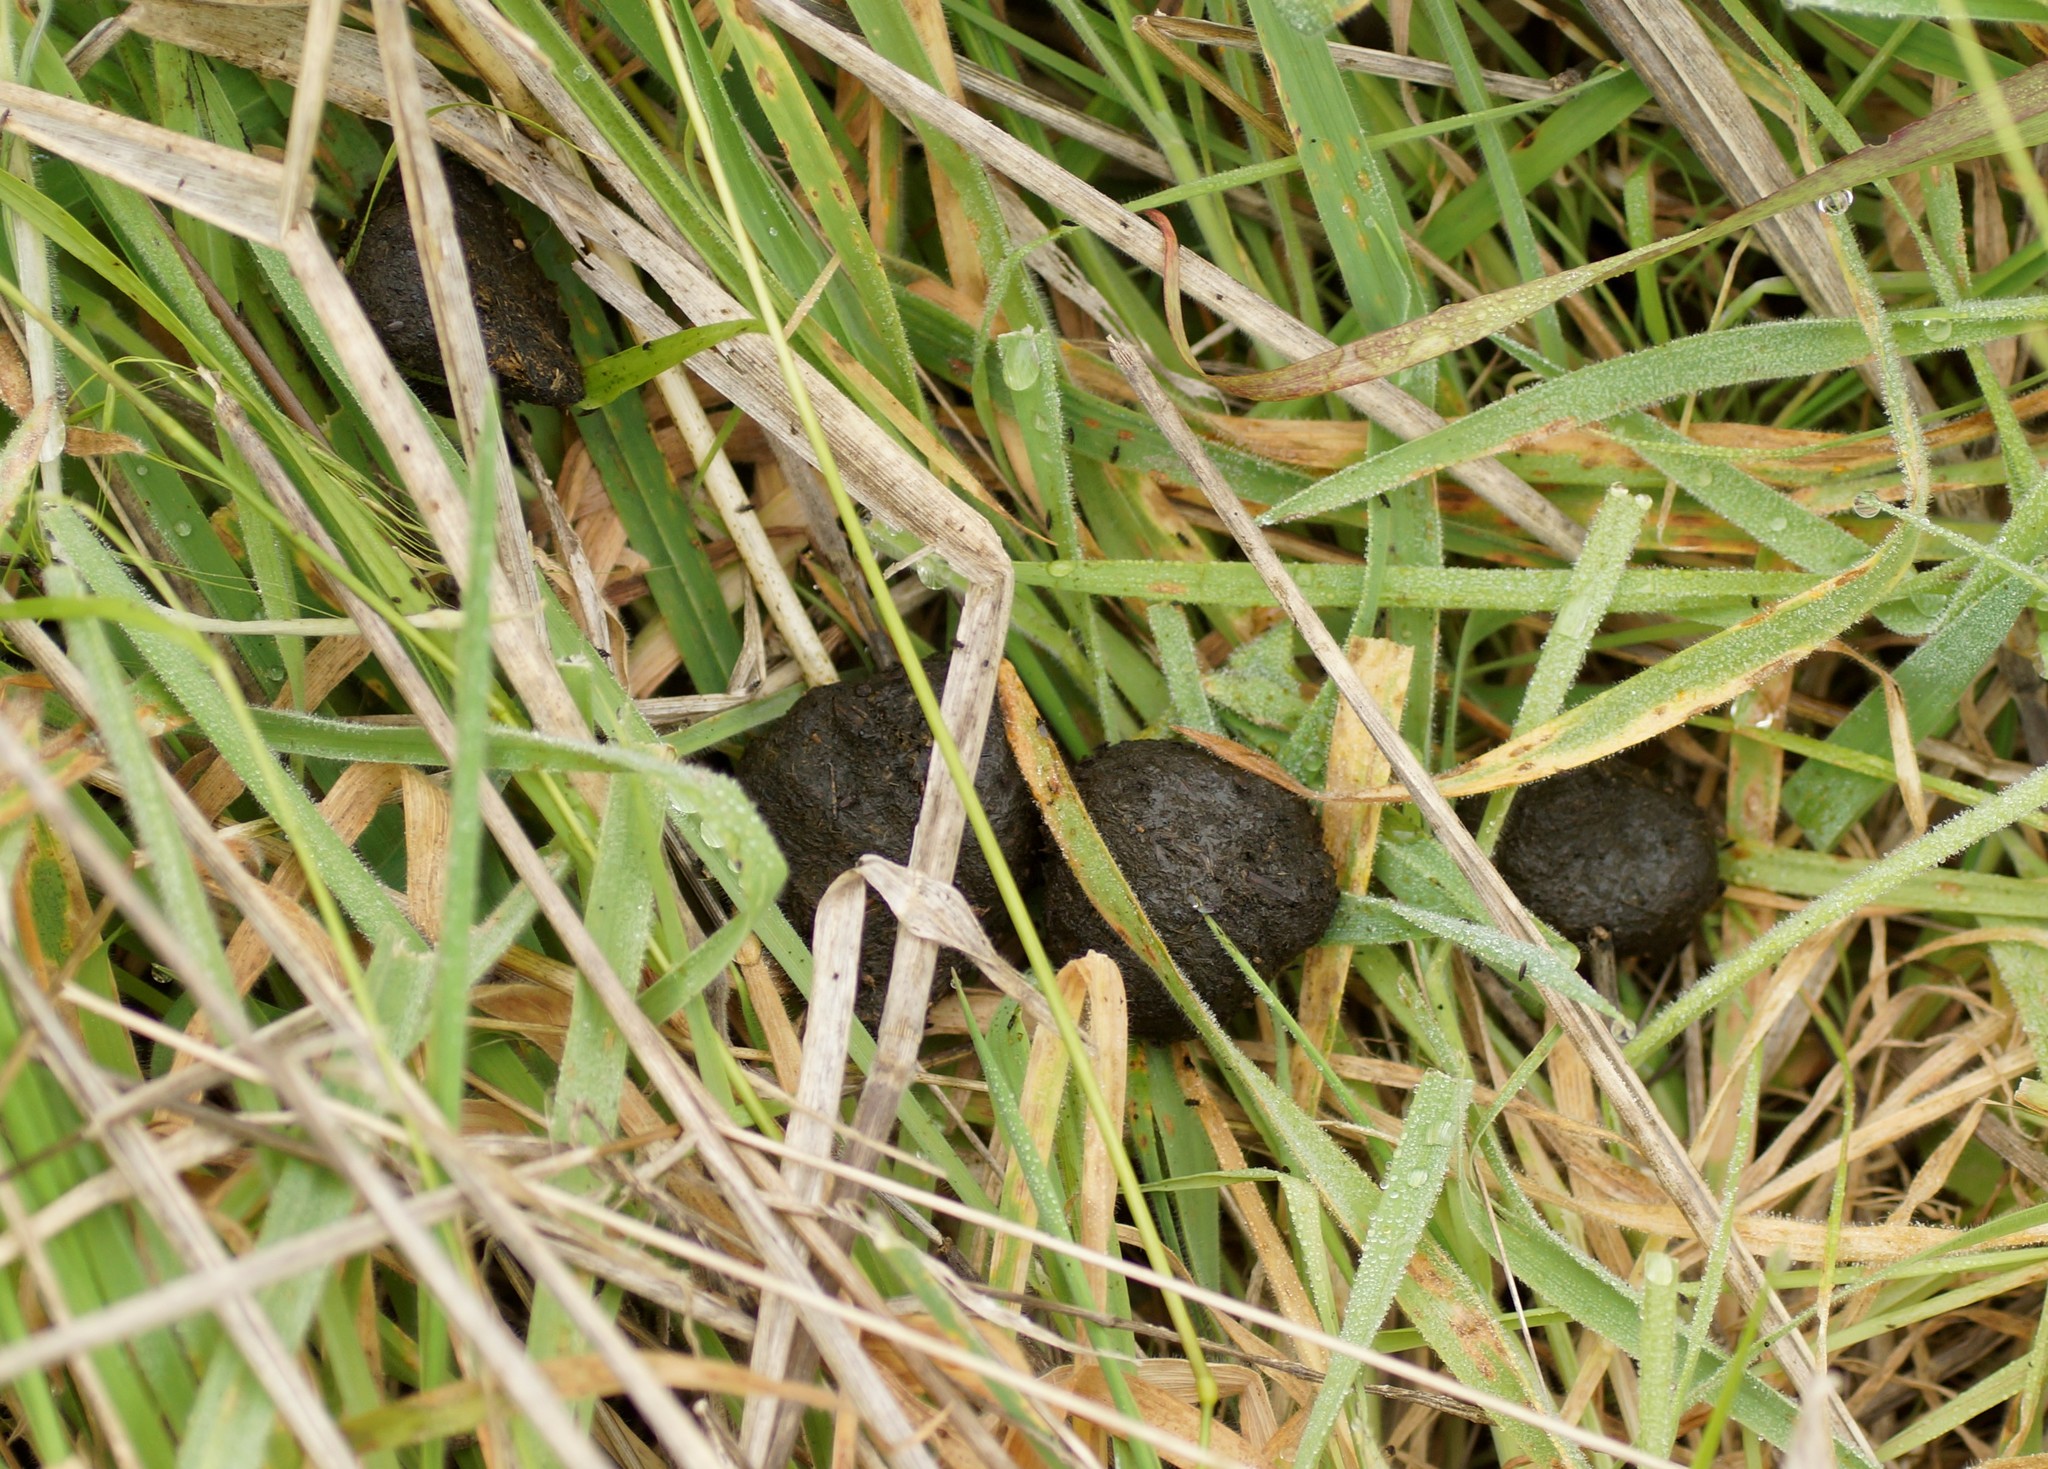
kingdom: Animalia
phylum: Chordata
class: Mammalia
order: Diprotodontia
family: Macropodidae
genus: Macropus
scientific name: Macropus giganteus
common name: Eastern grey kangaroo
